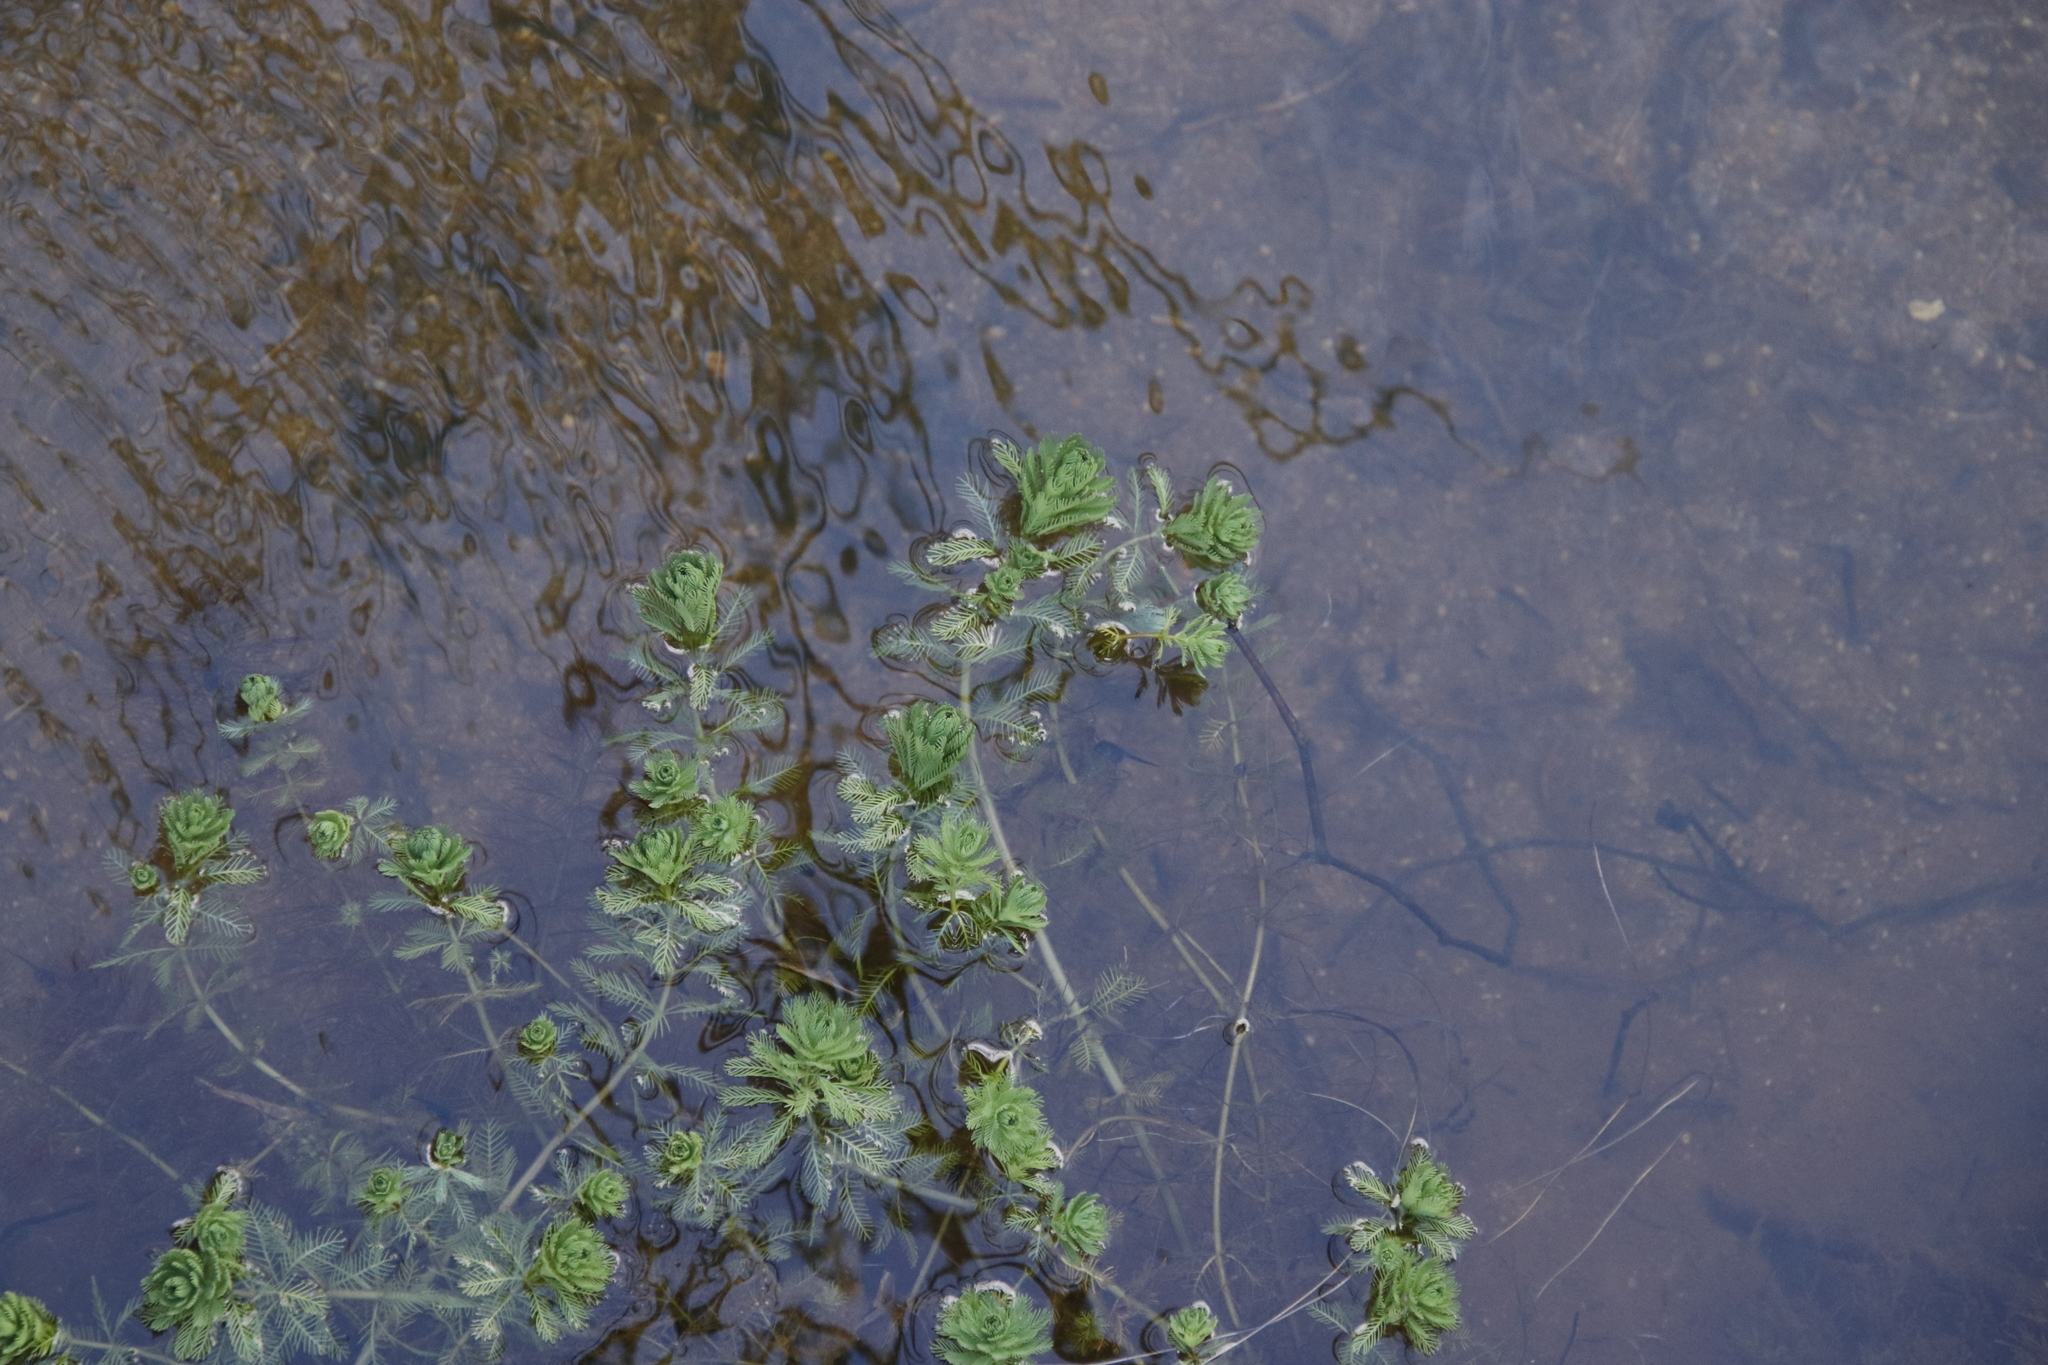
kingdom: Plantae
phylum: Tracheophyta
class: Magnoliopsida
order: Saxifragales
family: Haloragaceae
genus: Myriophyllum
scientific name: Myriophyllum aquaticum
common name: Parrot's feather
